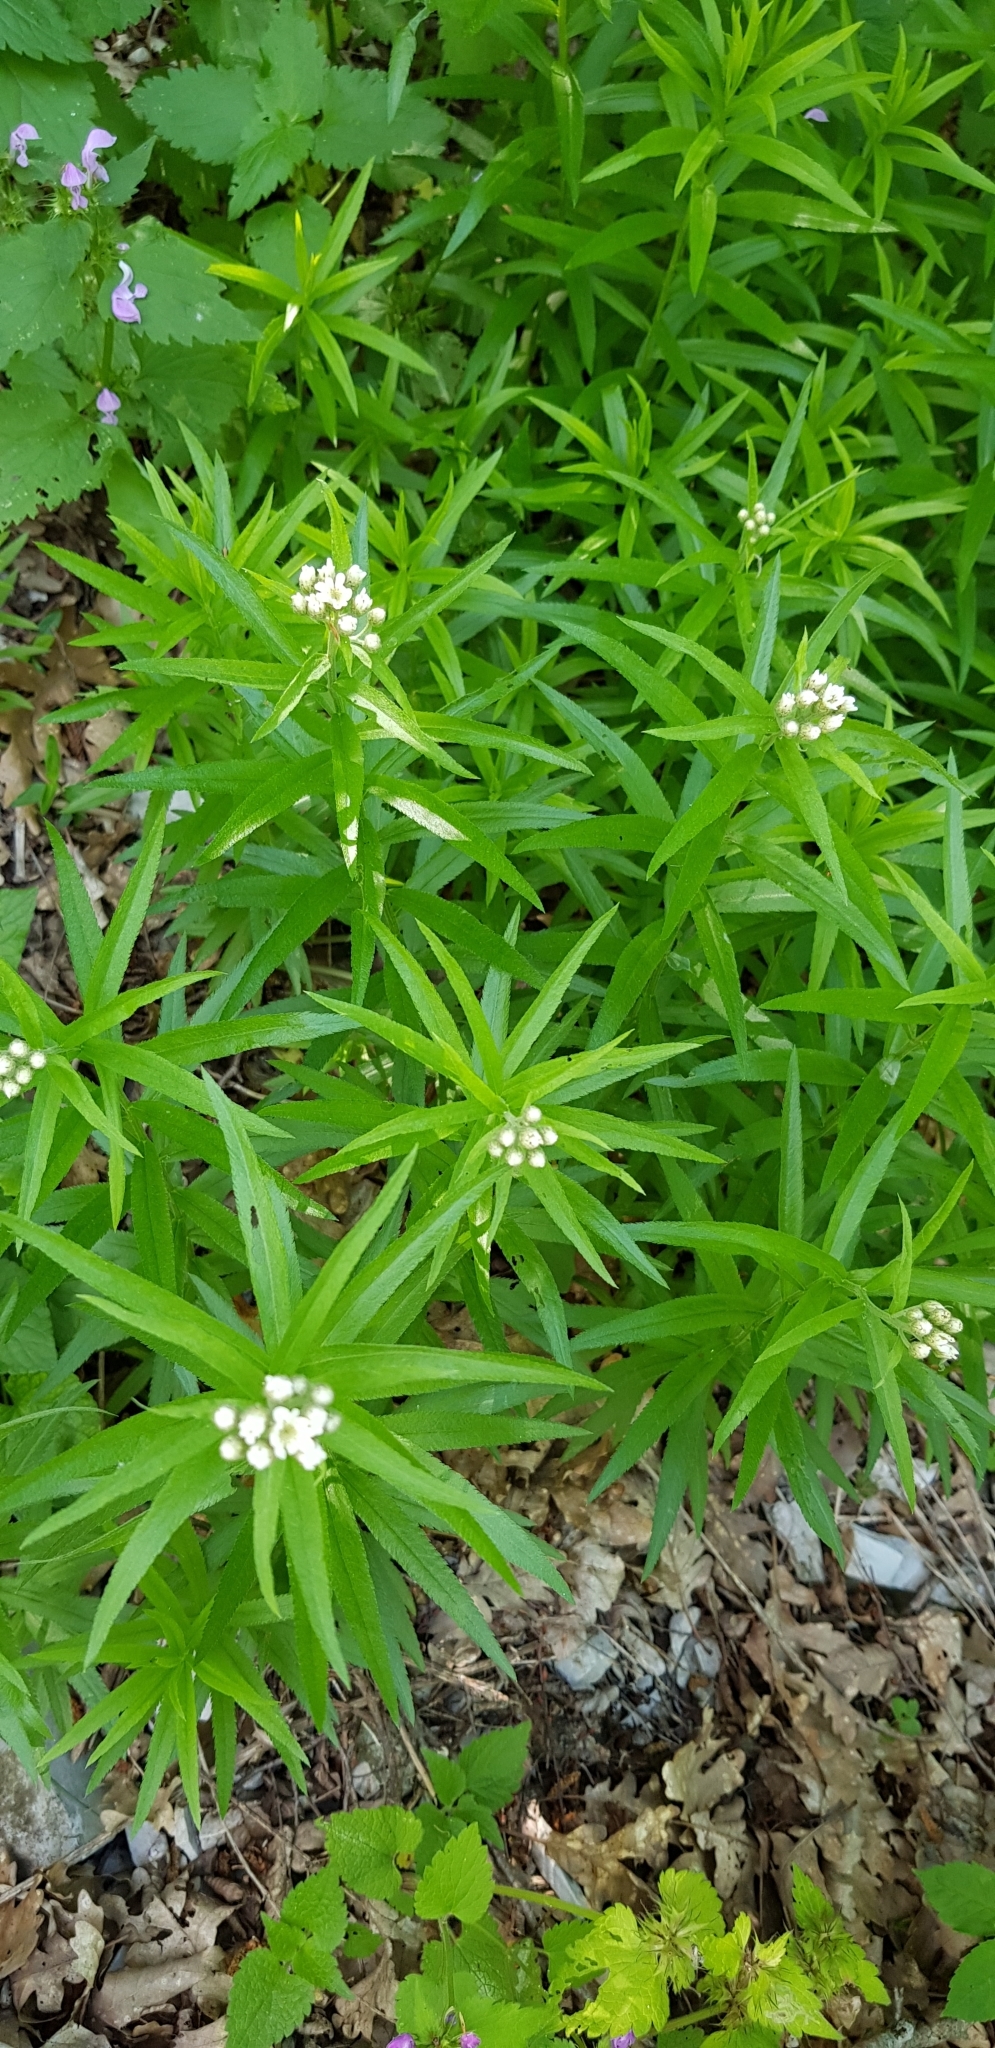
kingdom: Plantae
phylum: Tracheophyta
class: Magnoliopsida
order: Asterales
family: Asteraceae
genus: Achillea
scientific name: Achillea biserrata
